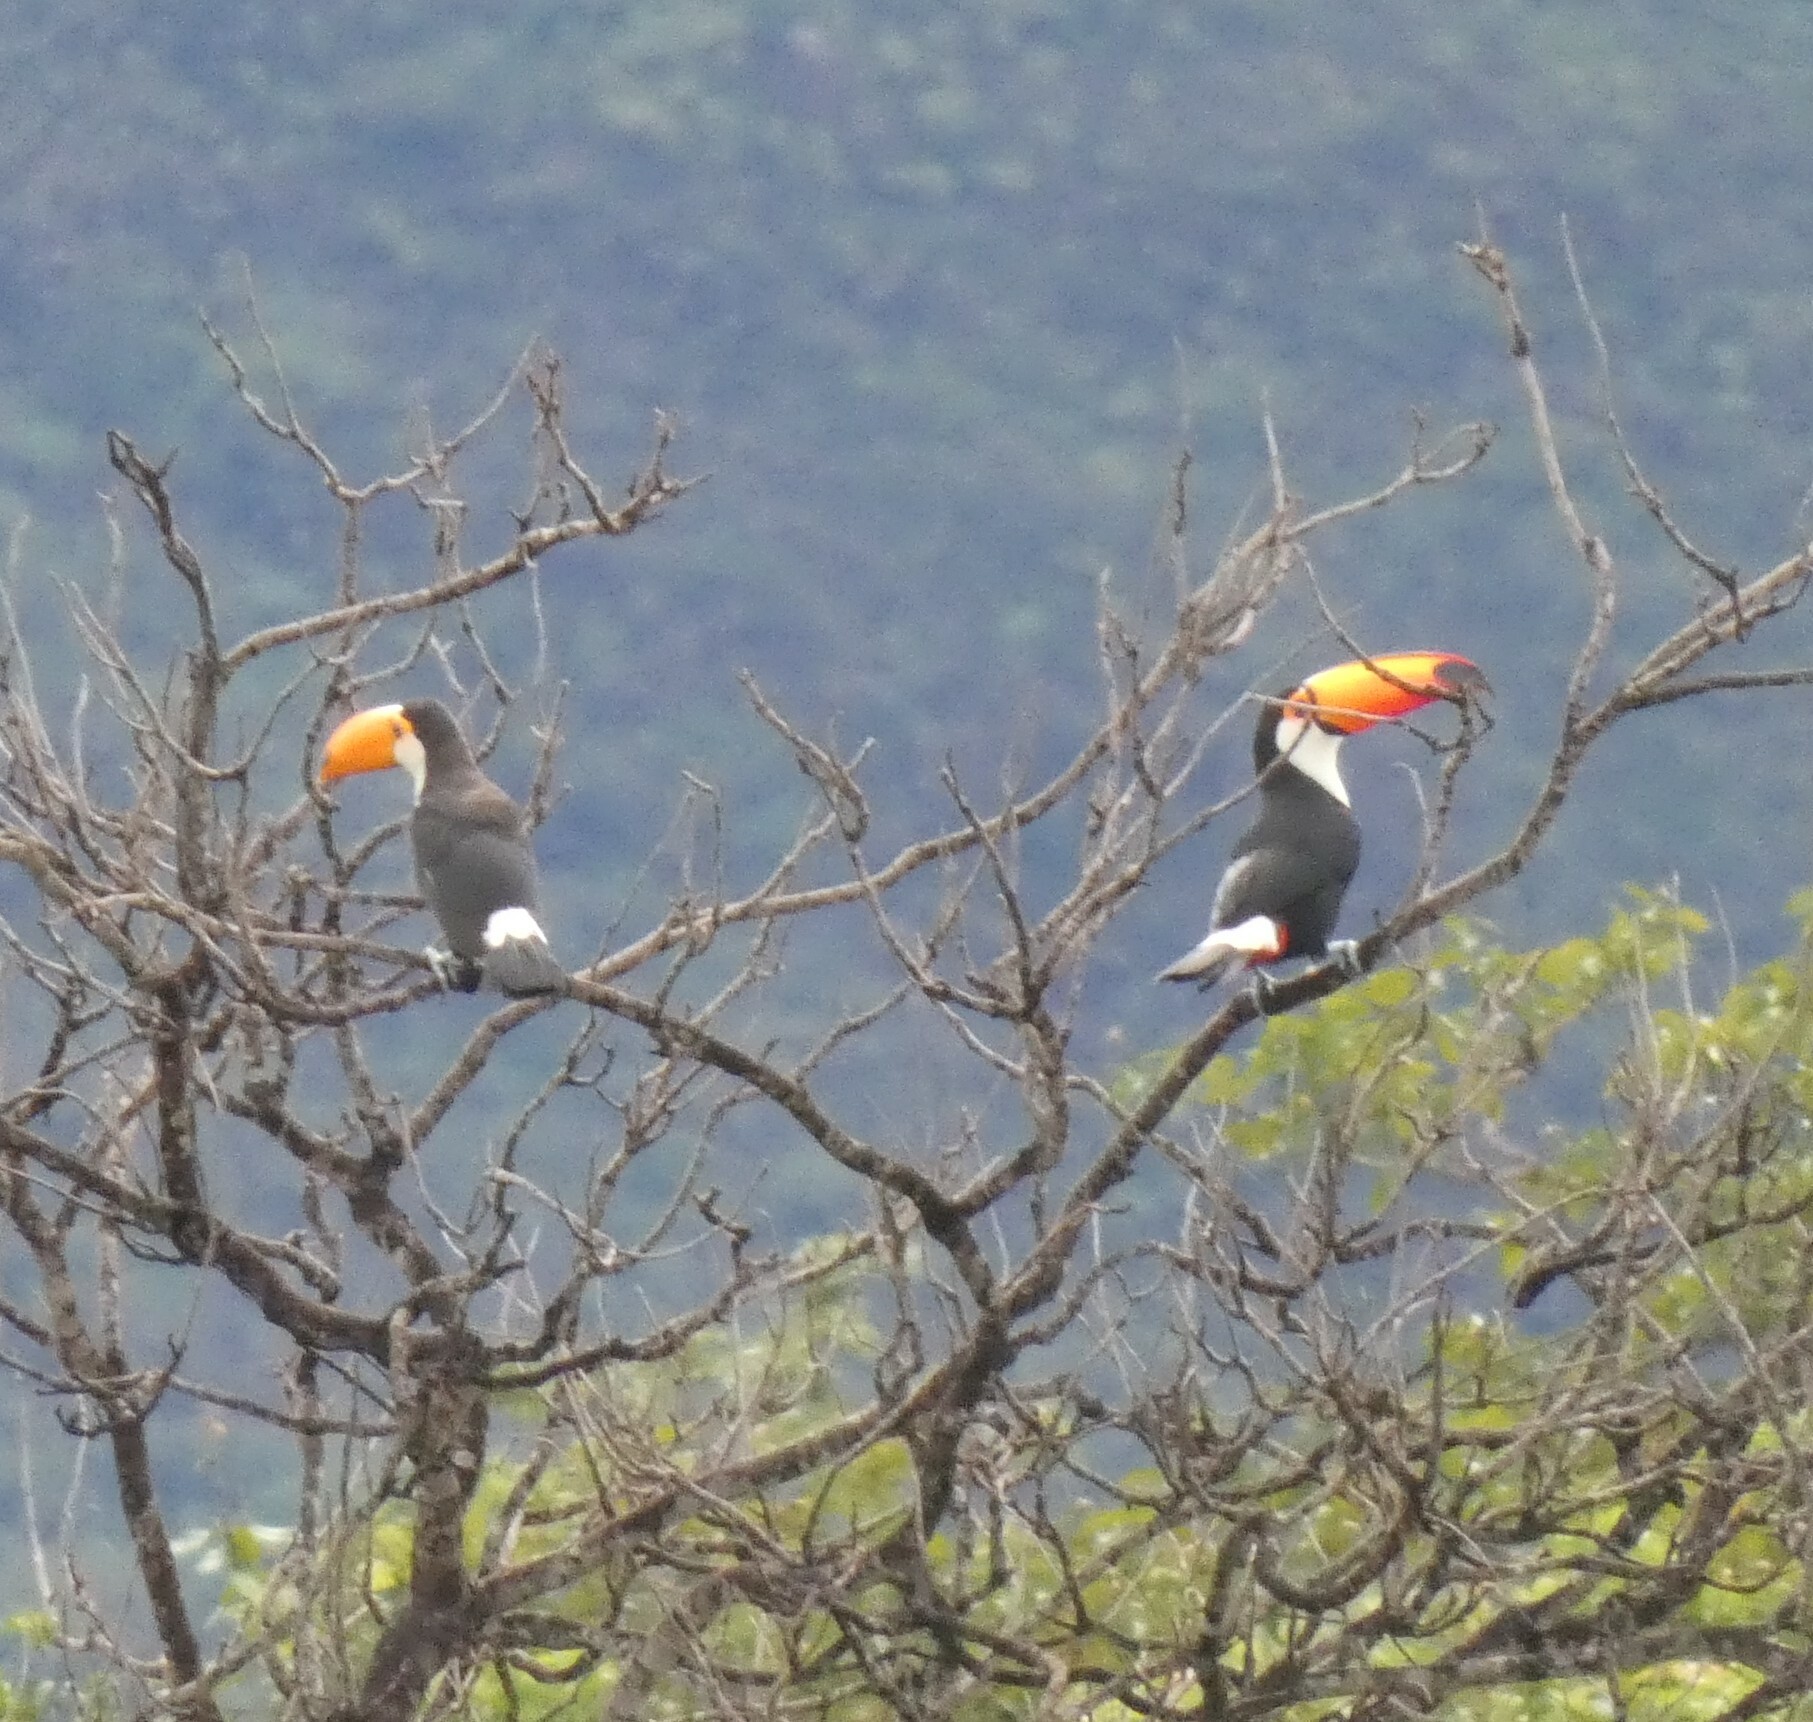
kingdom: Animalia
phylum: Chordata
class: Aves
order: Piciformes
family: Ramphastidae
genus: Ramphastos
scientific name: Ramphastos toco
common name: Toco toucan
